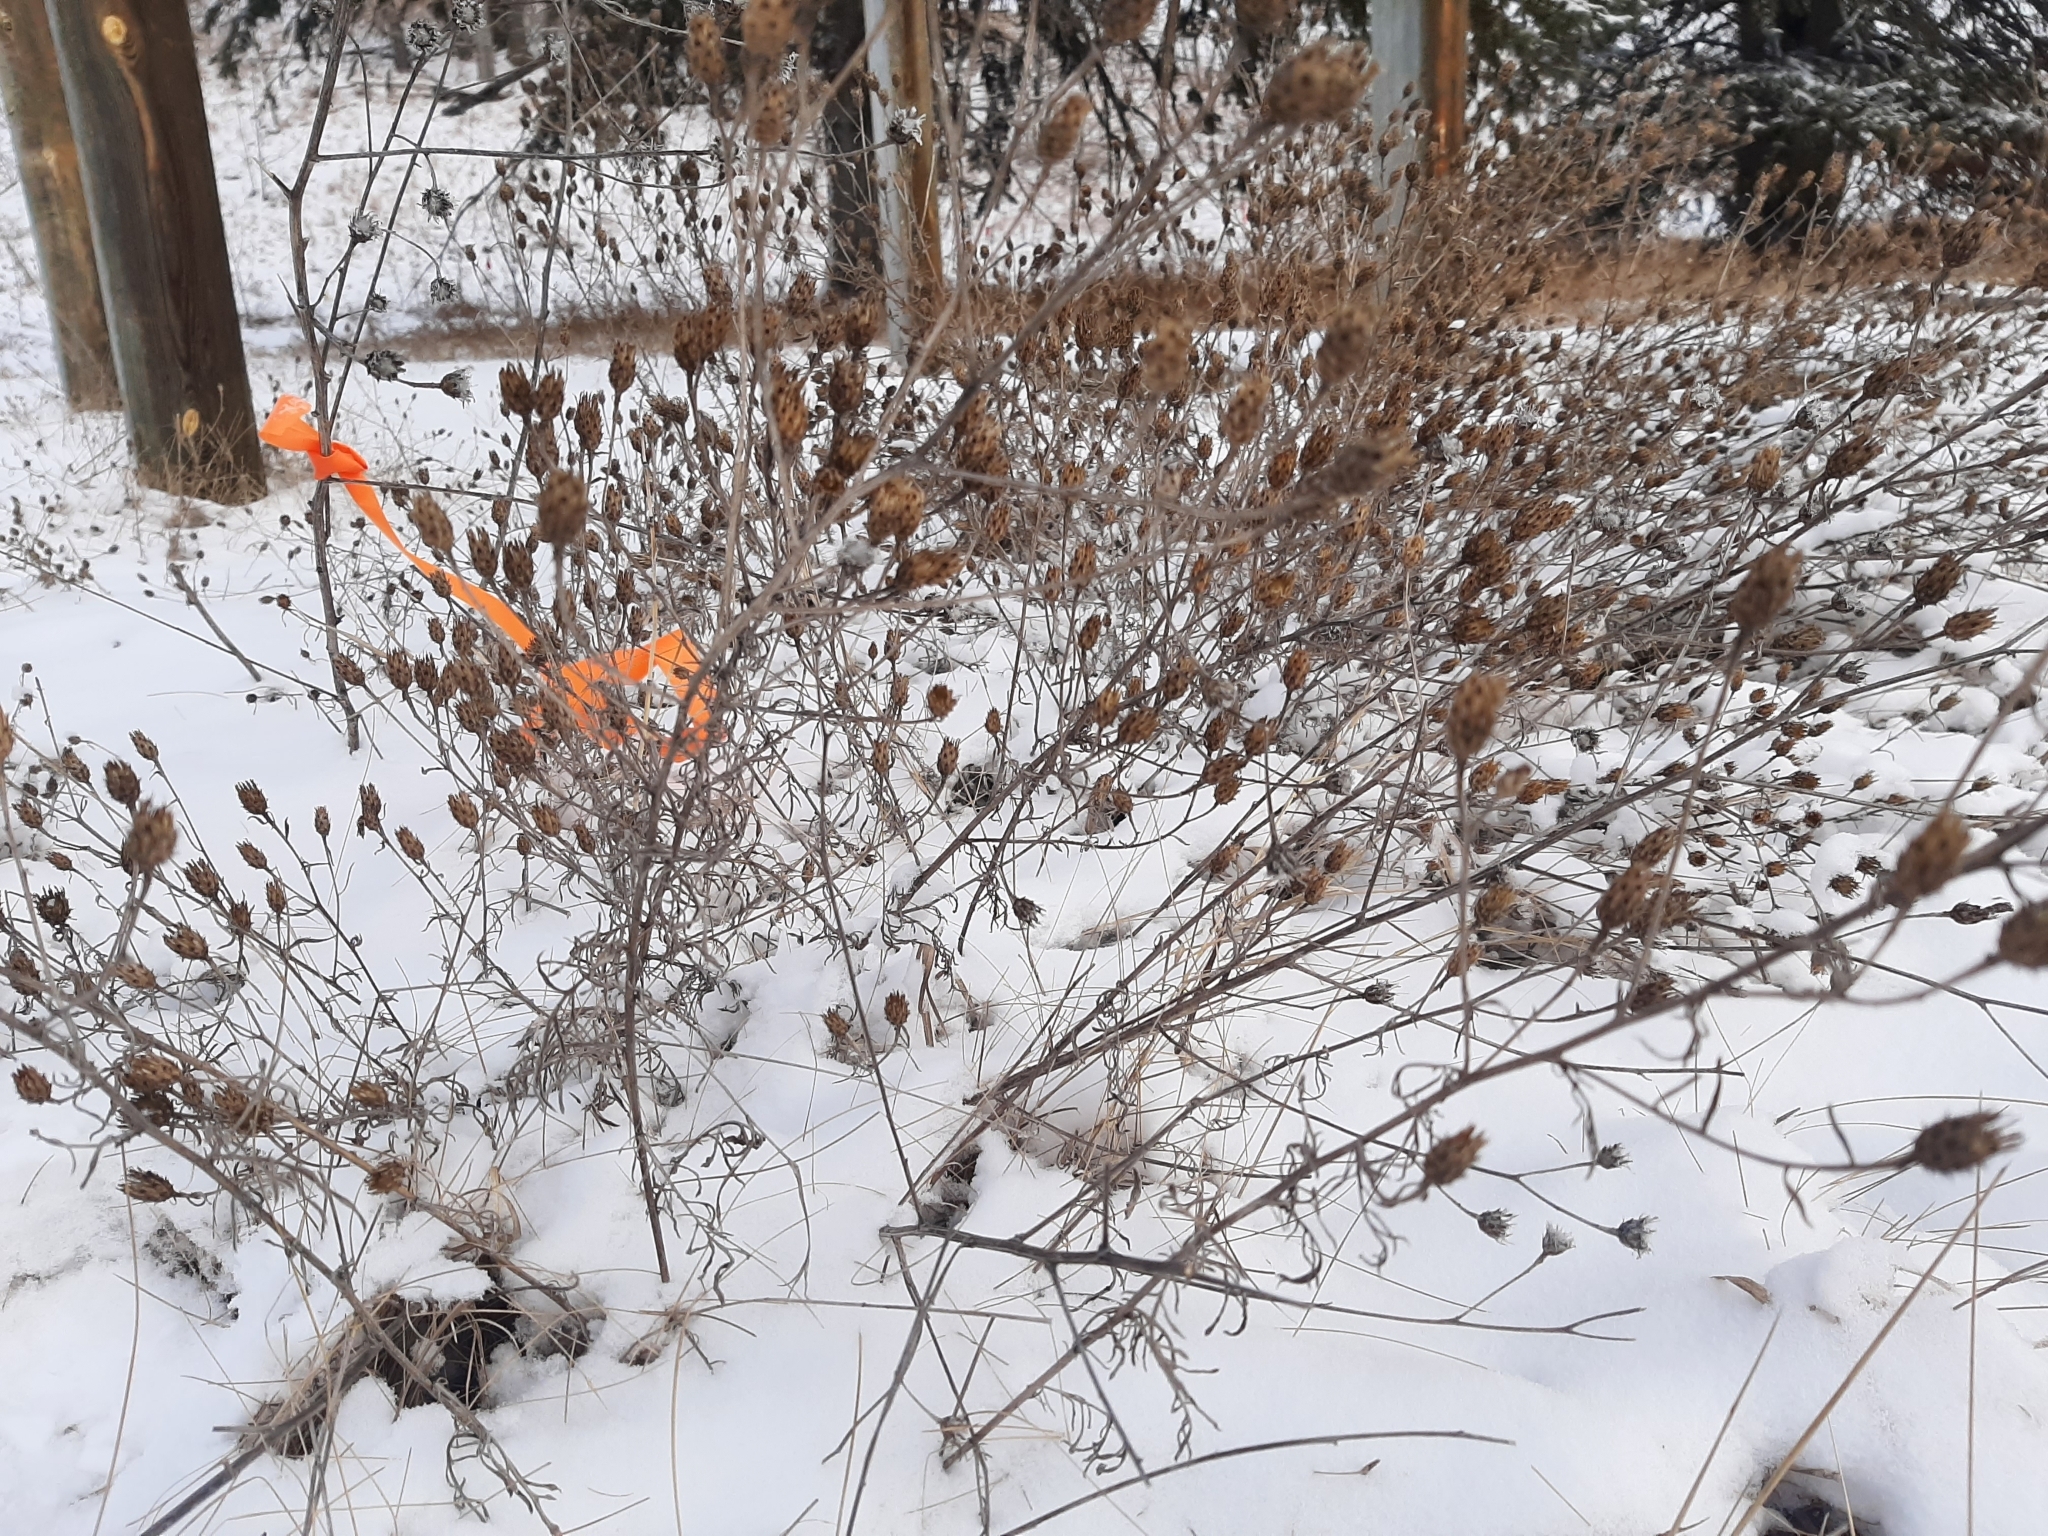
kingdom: Plantae
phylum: Tracheophyta
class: Magnoliopsida
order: Asterales
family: Asteraceae
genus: Centaurea
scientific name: Centaurea stoebe
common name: Spotted knapweed
